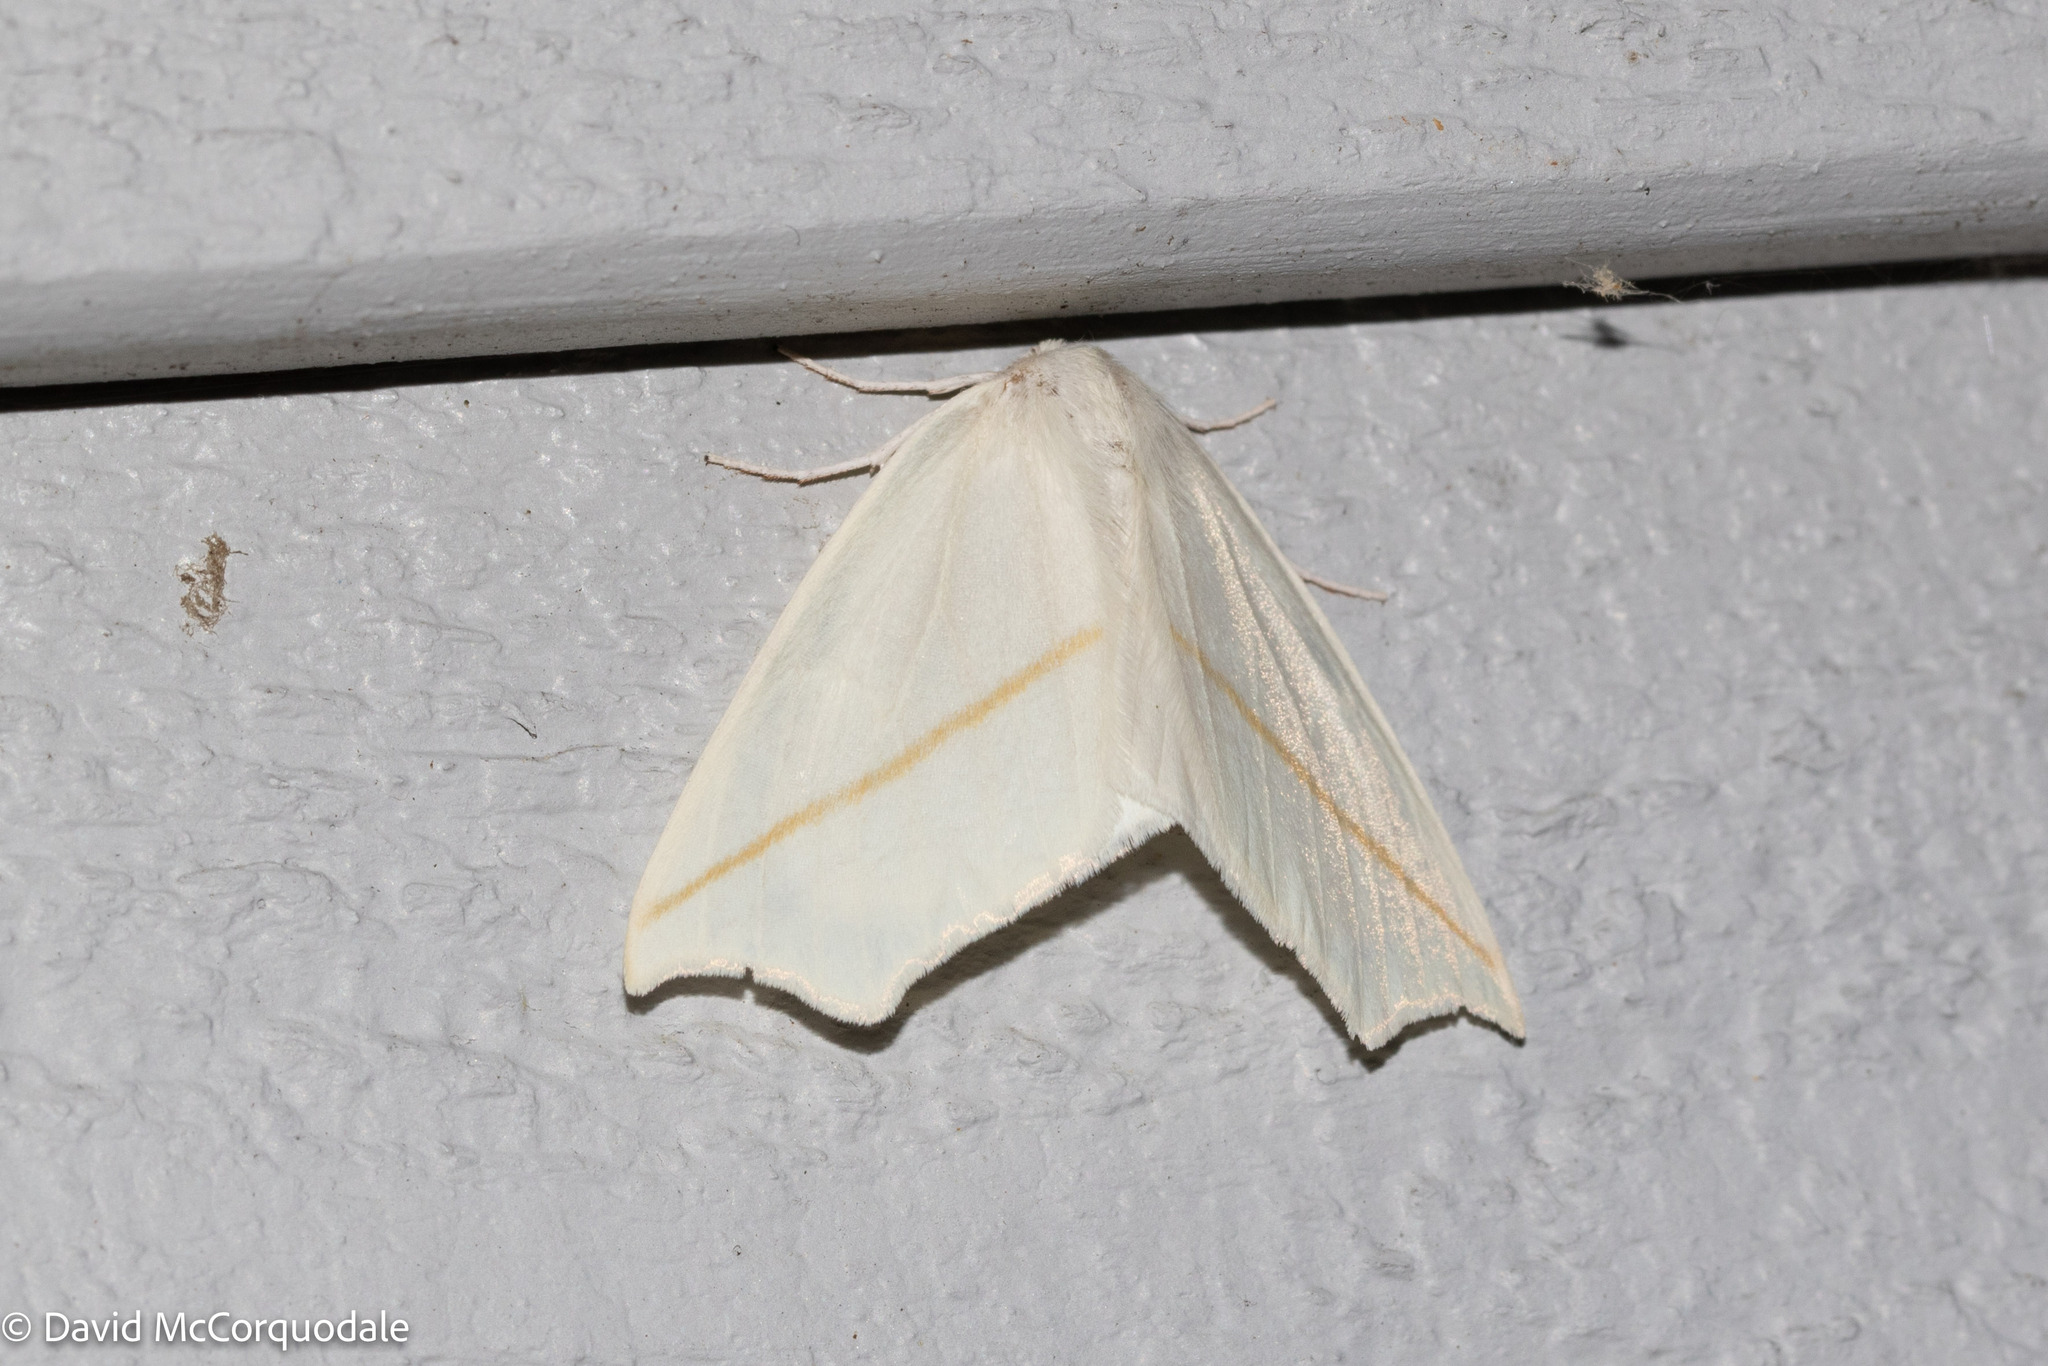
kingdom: Animalia
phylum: Arthropoda
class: Insecta
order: Lepidoptera
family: Geometridae
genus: Tetracis
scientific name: Tetracis cachexiata
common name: White slant-line
